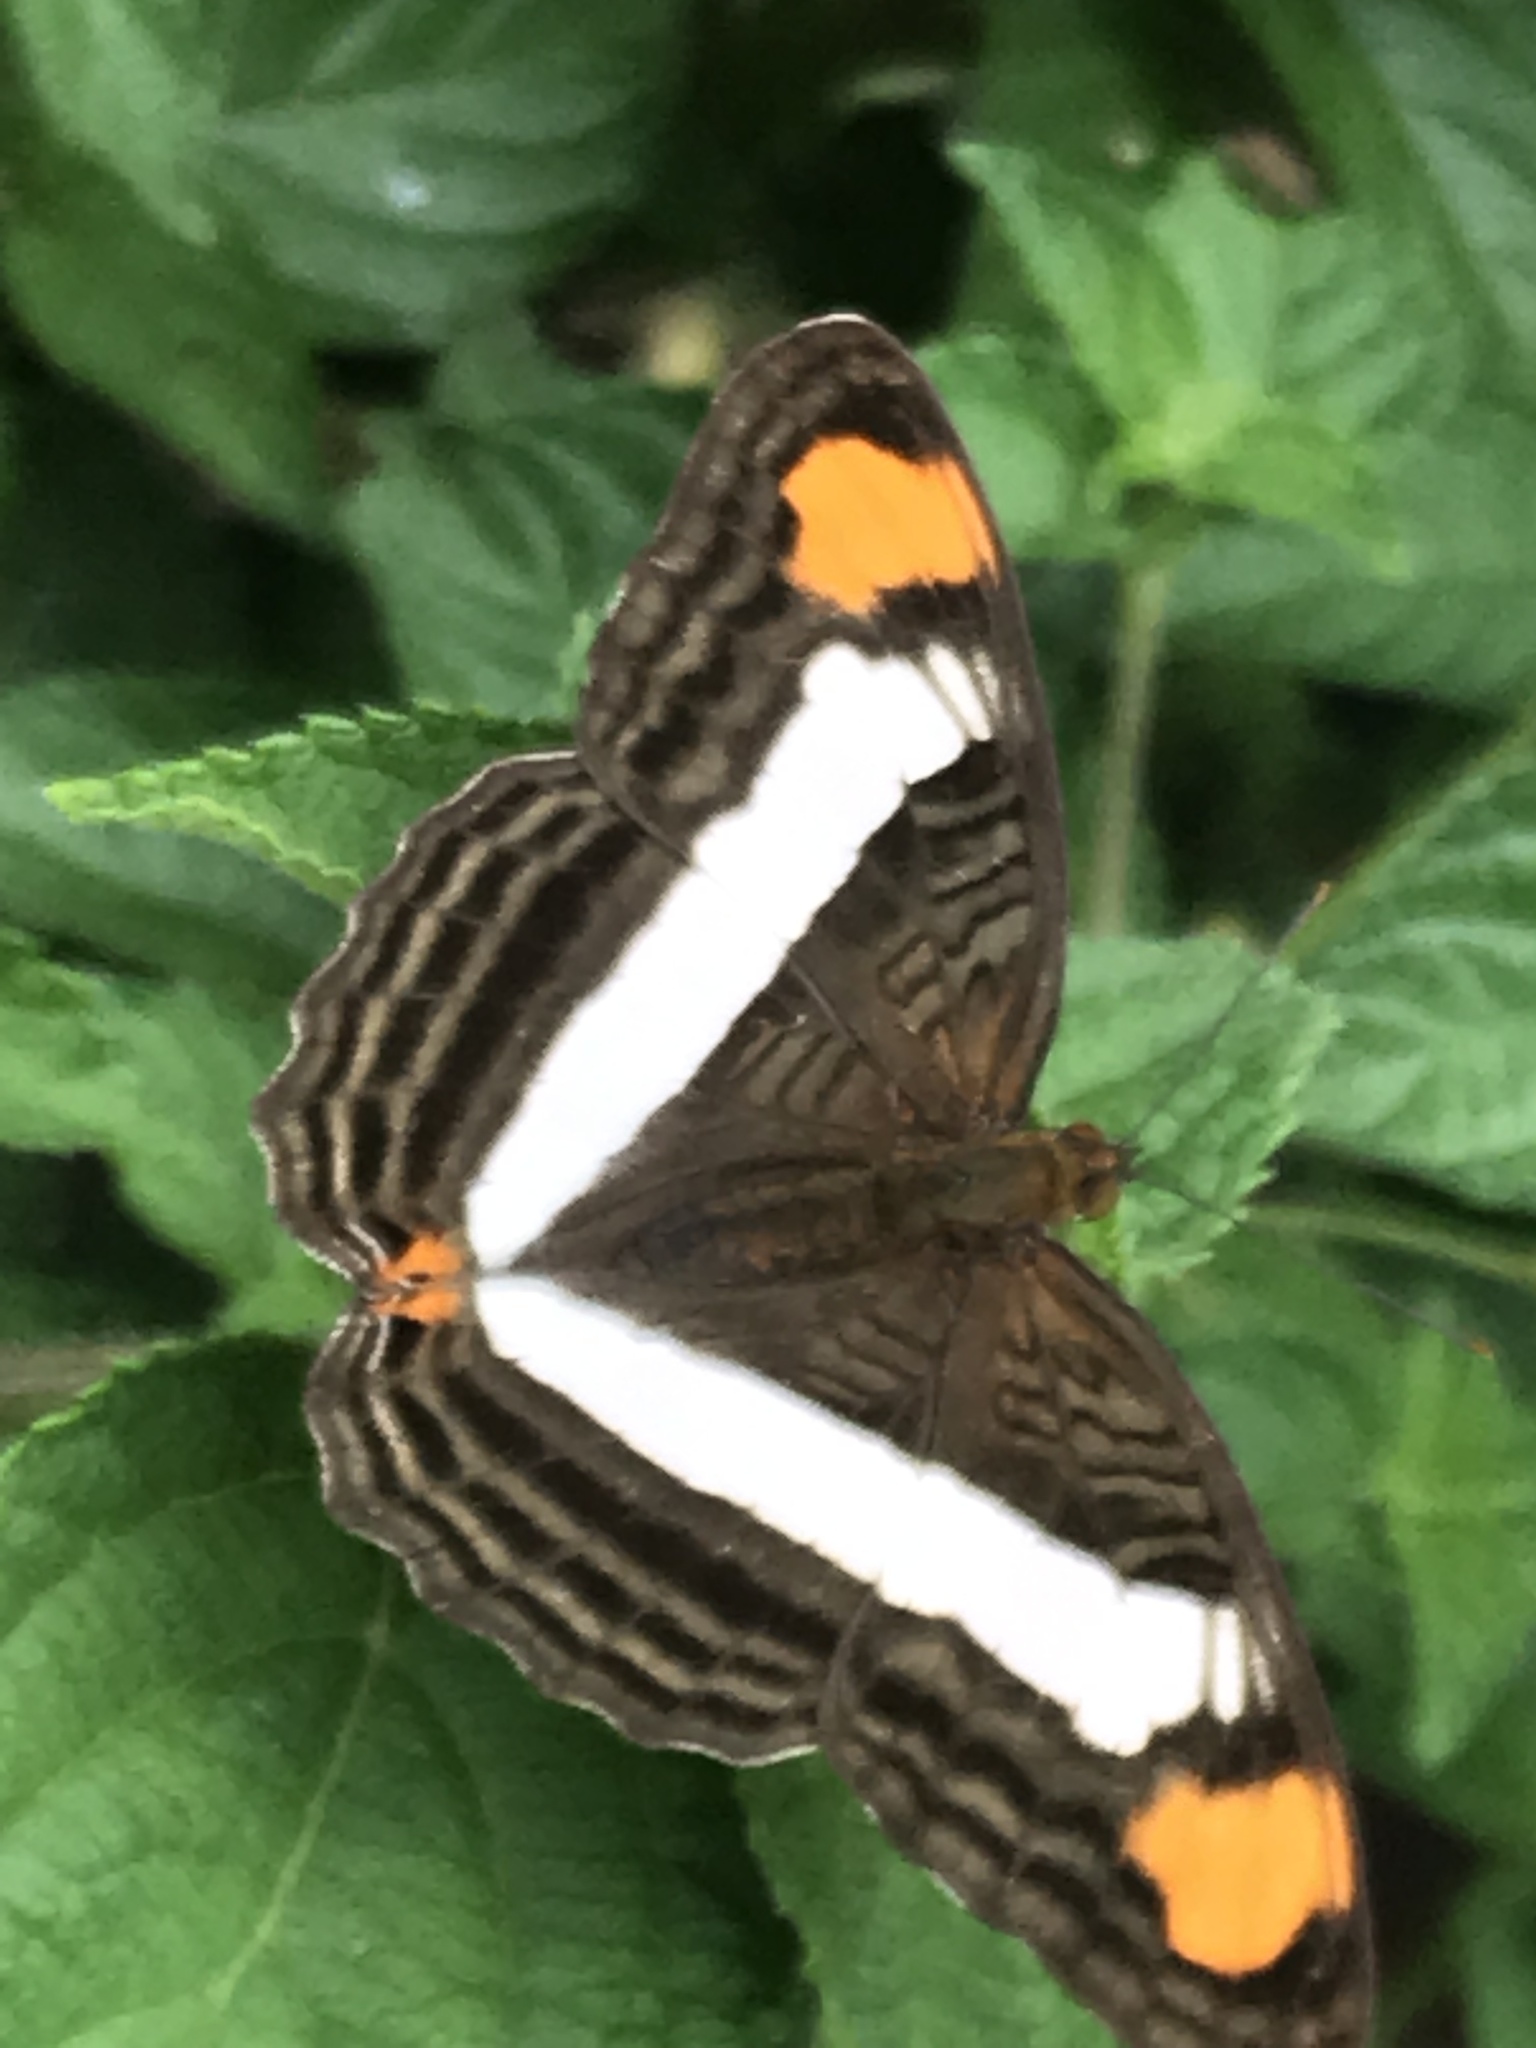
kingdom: Animalia
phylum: Arthropoda
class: Insecta
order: Lepidoptera
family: Nymphalidae
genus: Limenitis
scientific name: Limenitis Adelpha basiloides
